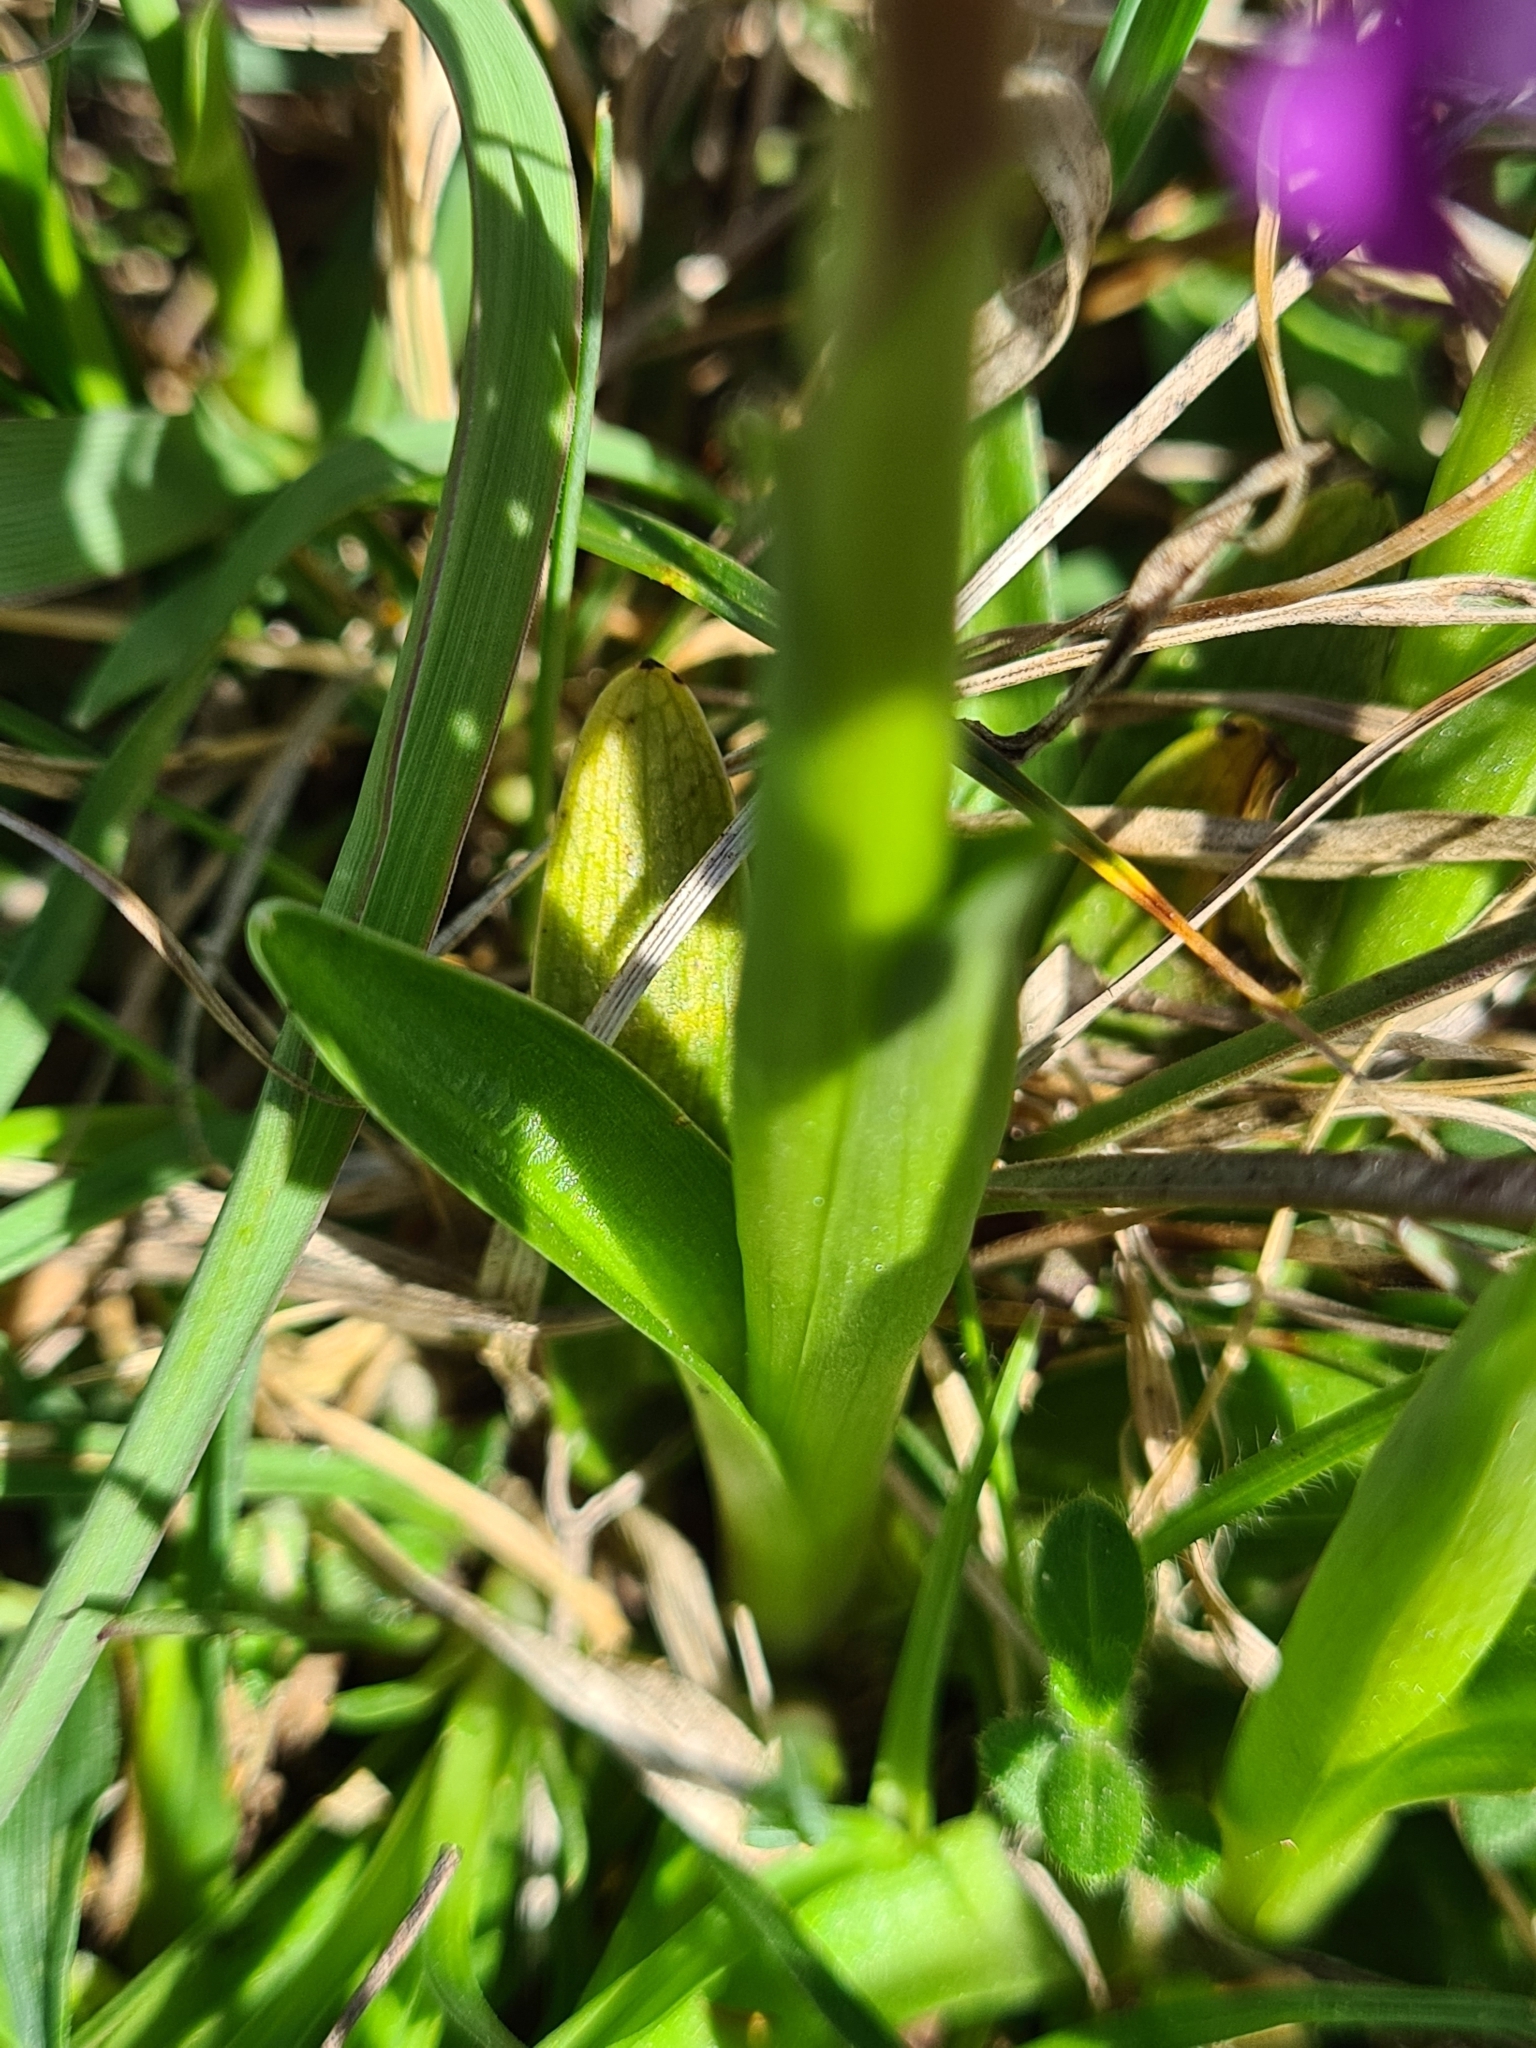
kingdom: Plantae
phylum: Tracheophyta
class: Liliopsida
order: Asparagales
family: Orchidaceae
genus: Anacamptis
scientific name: Anacamptis morio
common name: Green-winged orchid
